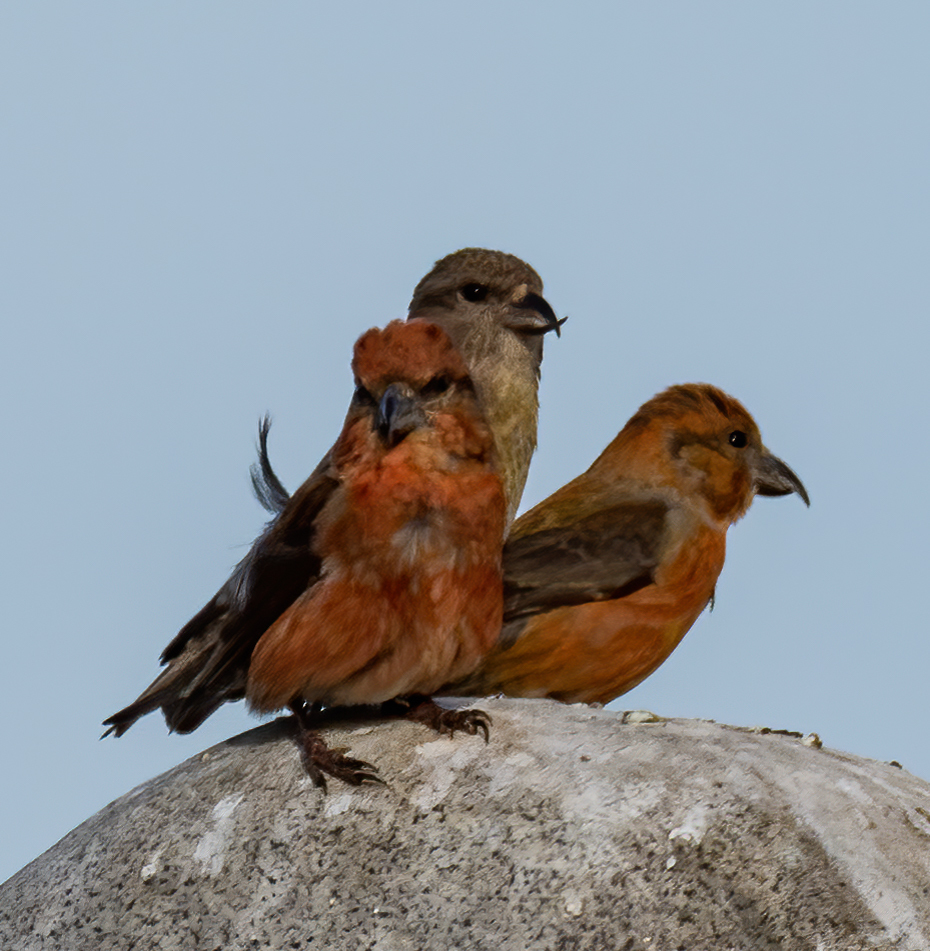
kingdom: Animalia
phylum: Chordata
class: Aves
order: Passeriformes
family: Fringillidae
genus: Loxia
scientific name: Loxia curvirostra
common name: Red crossbill
